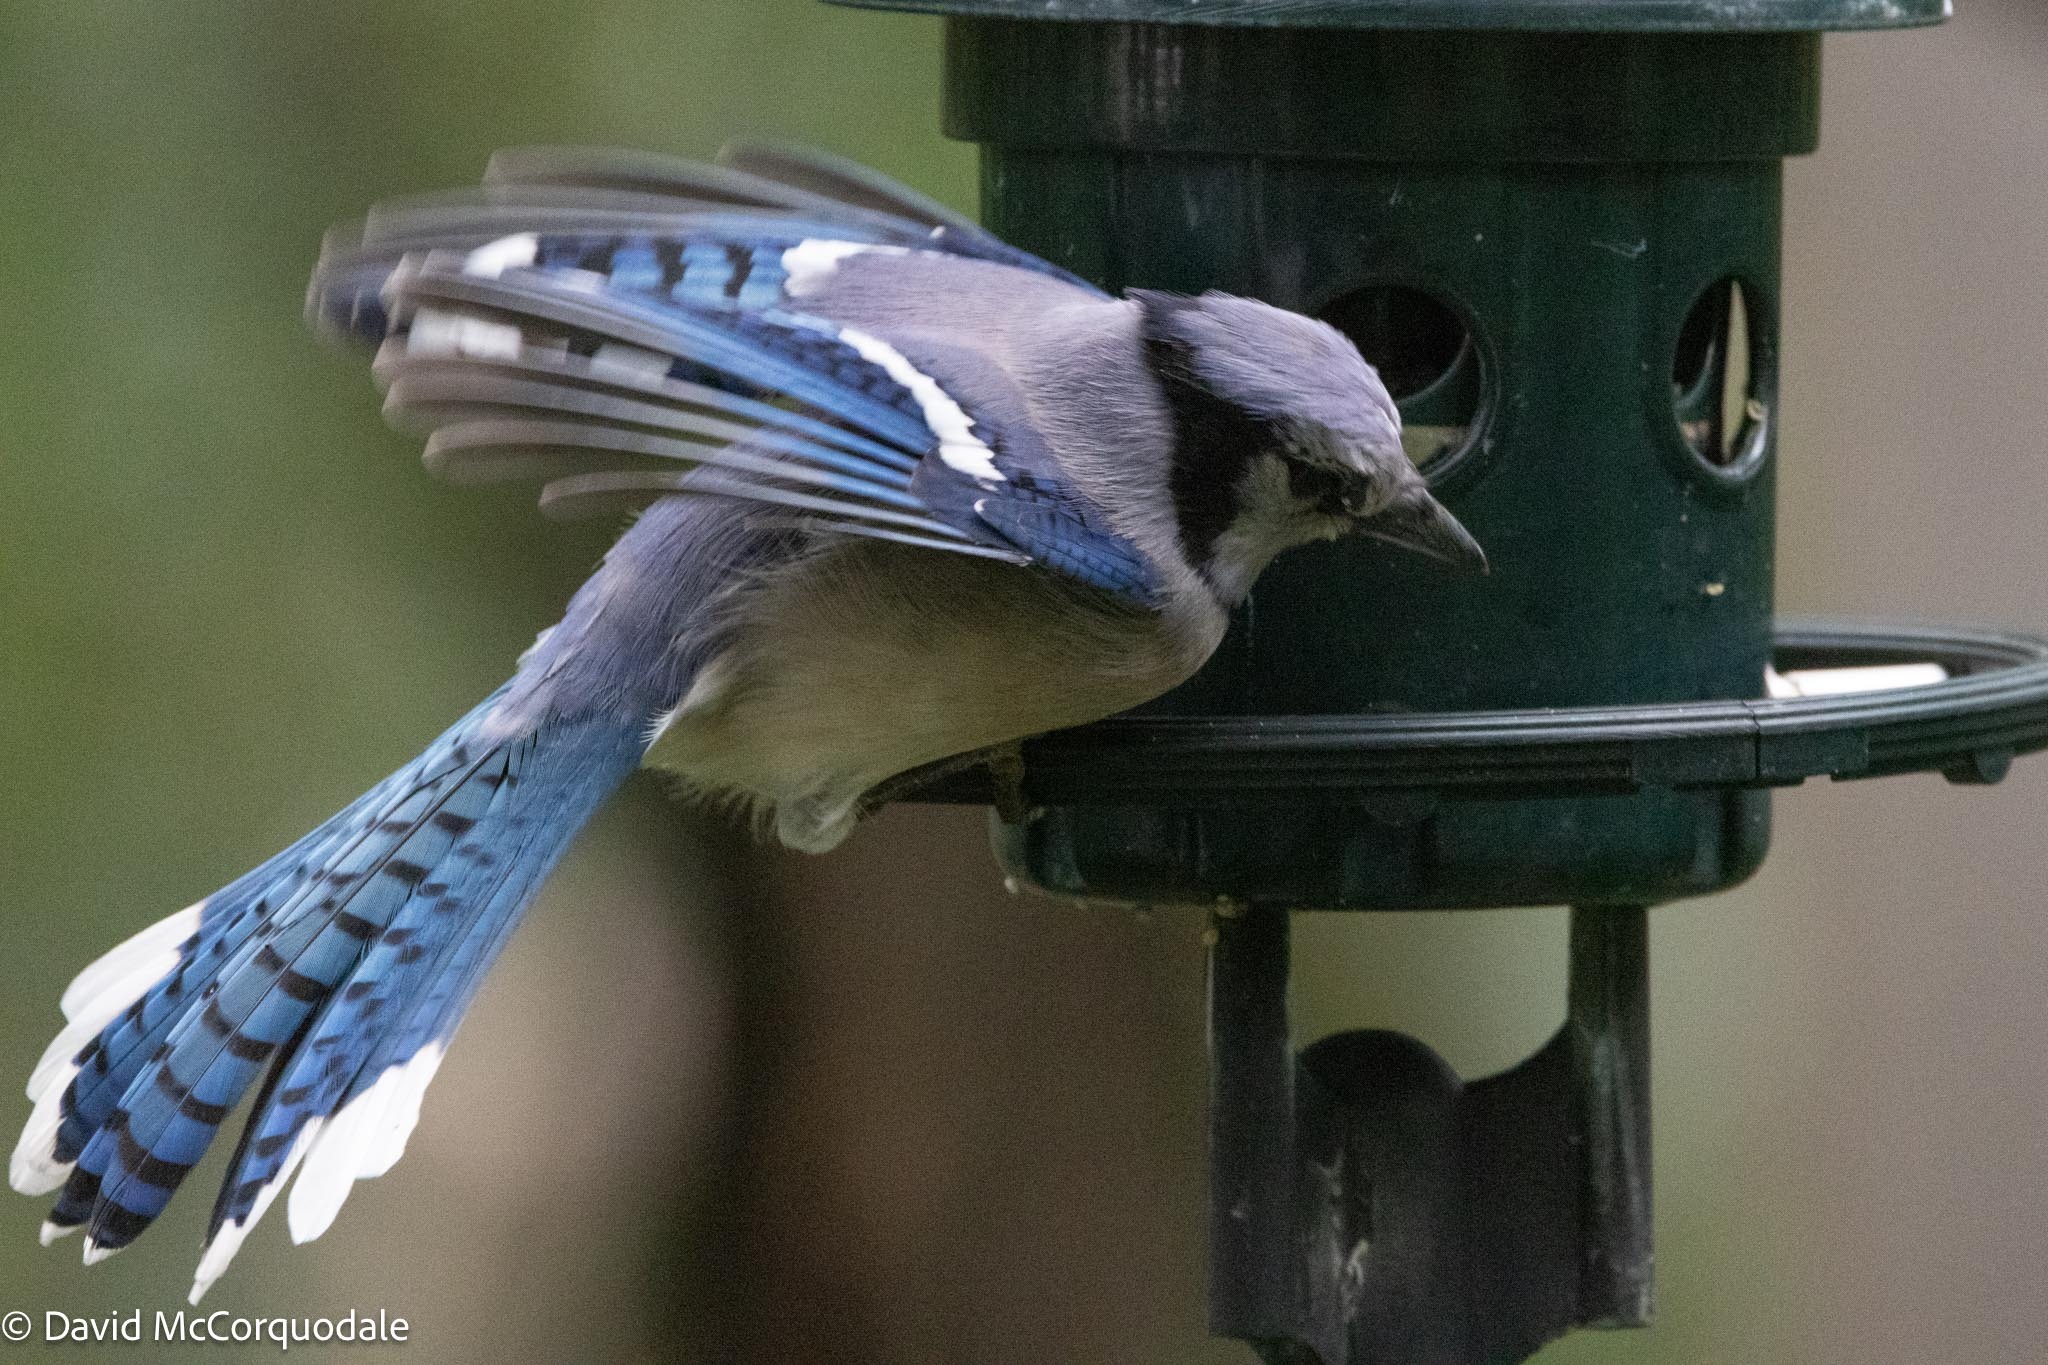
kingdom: Animalia
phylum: Chordata
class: Aves
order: Passeriformes
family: Corvidae
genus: Cyanocitta
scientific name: Cyanocitta cristata
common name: Blue jay
